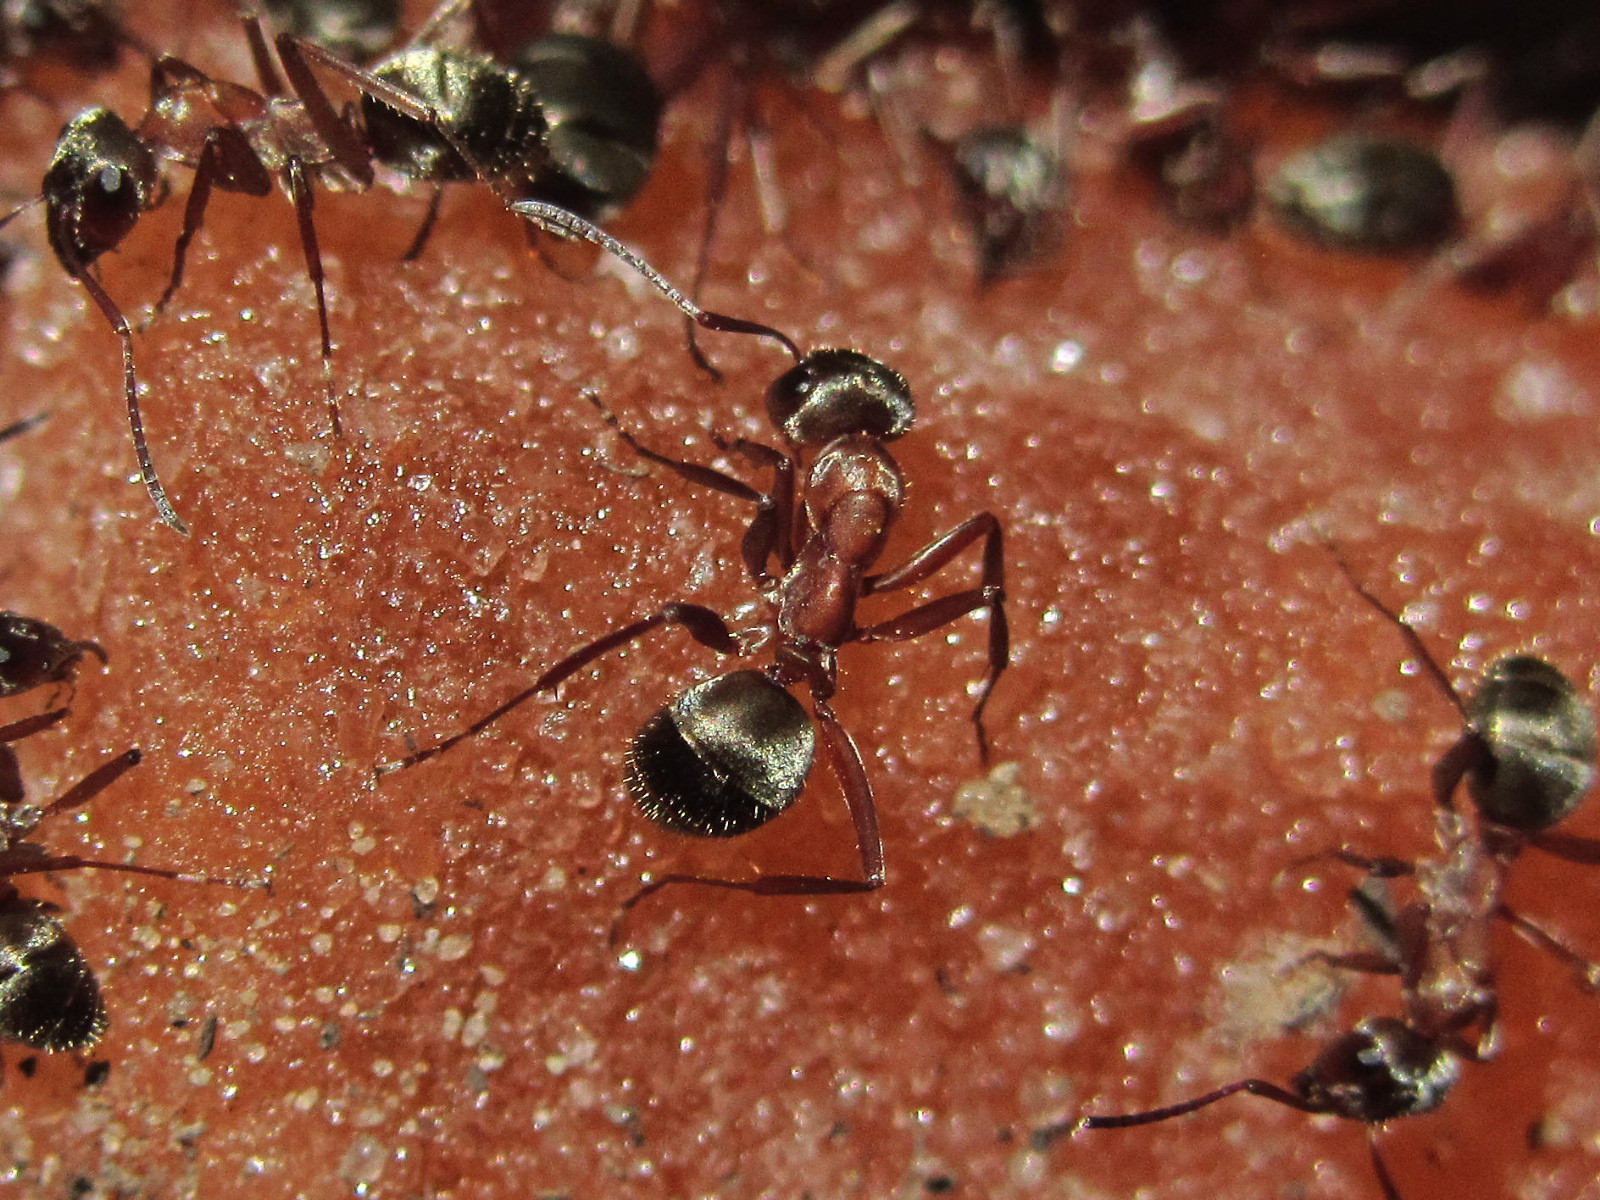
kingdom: Animalia
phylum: Arthropoda
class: Insecta
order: Hymenoptera
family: Formicidae
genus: Formica
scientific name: Formica cinerea
